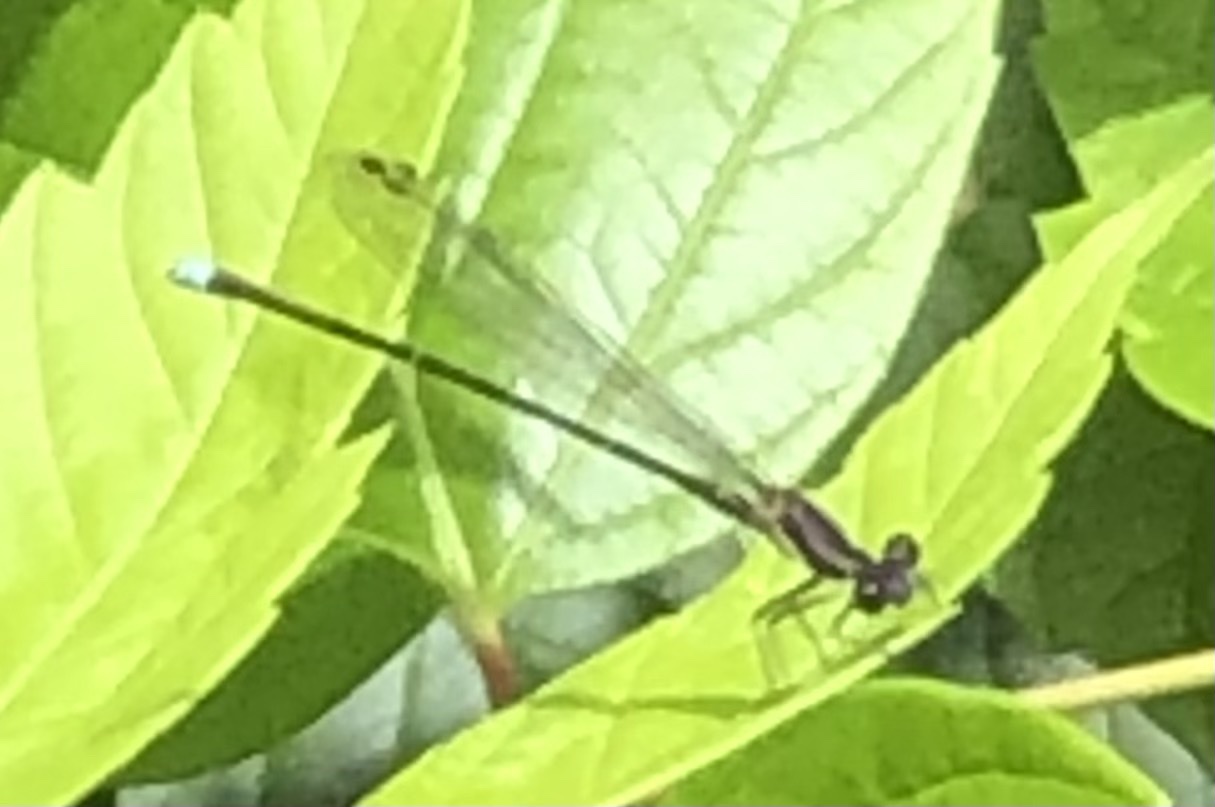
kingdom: Animalia
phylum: Arthropoda
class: Insecta
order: Odonata
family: Coenagrionidae
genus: Argia
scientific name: Argia tibialis
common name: Blue-tipped dancer
